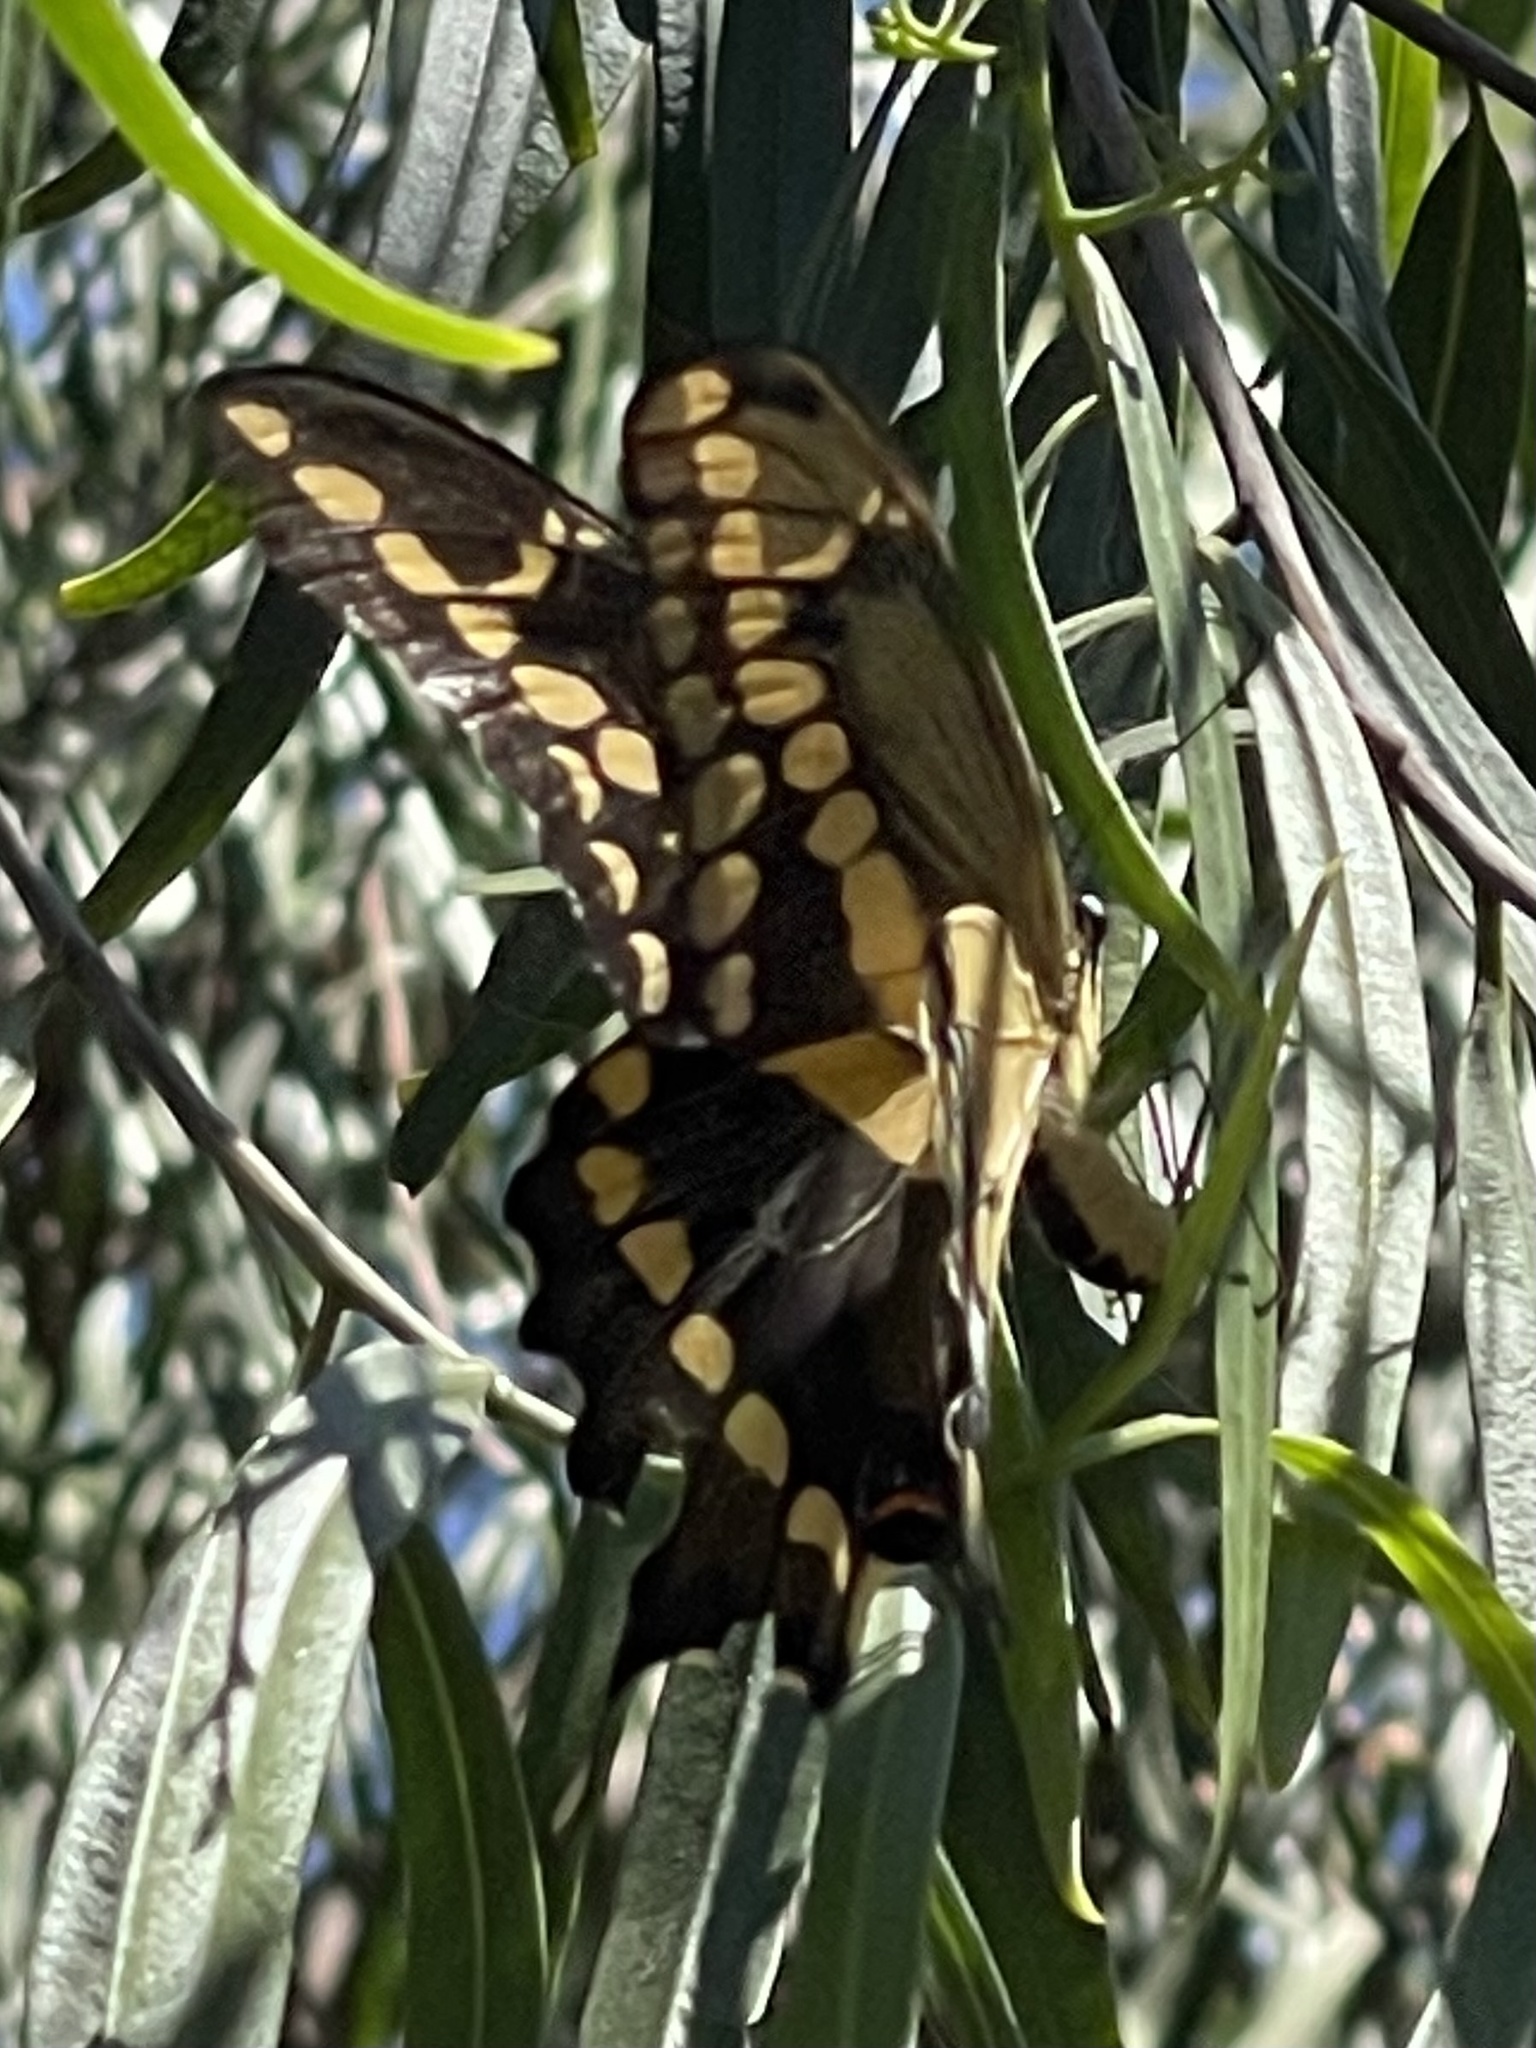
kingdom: Animalia
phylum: Arthropoda
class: Insecta
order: Lepidoptera
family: Papilionidae
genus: Papilio
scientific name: Papilio rumiko
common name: Western giant swallowtail
